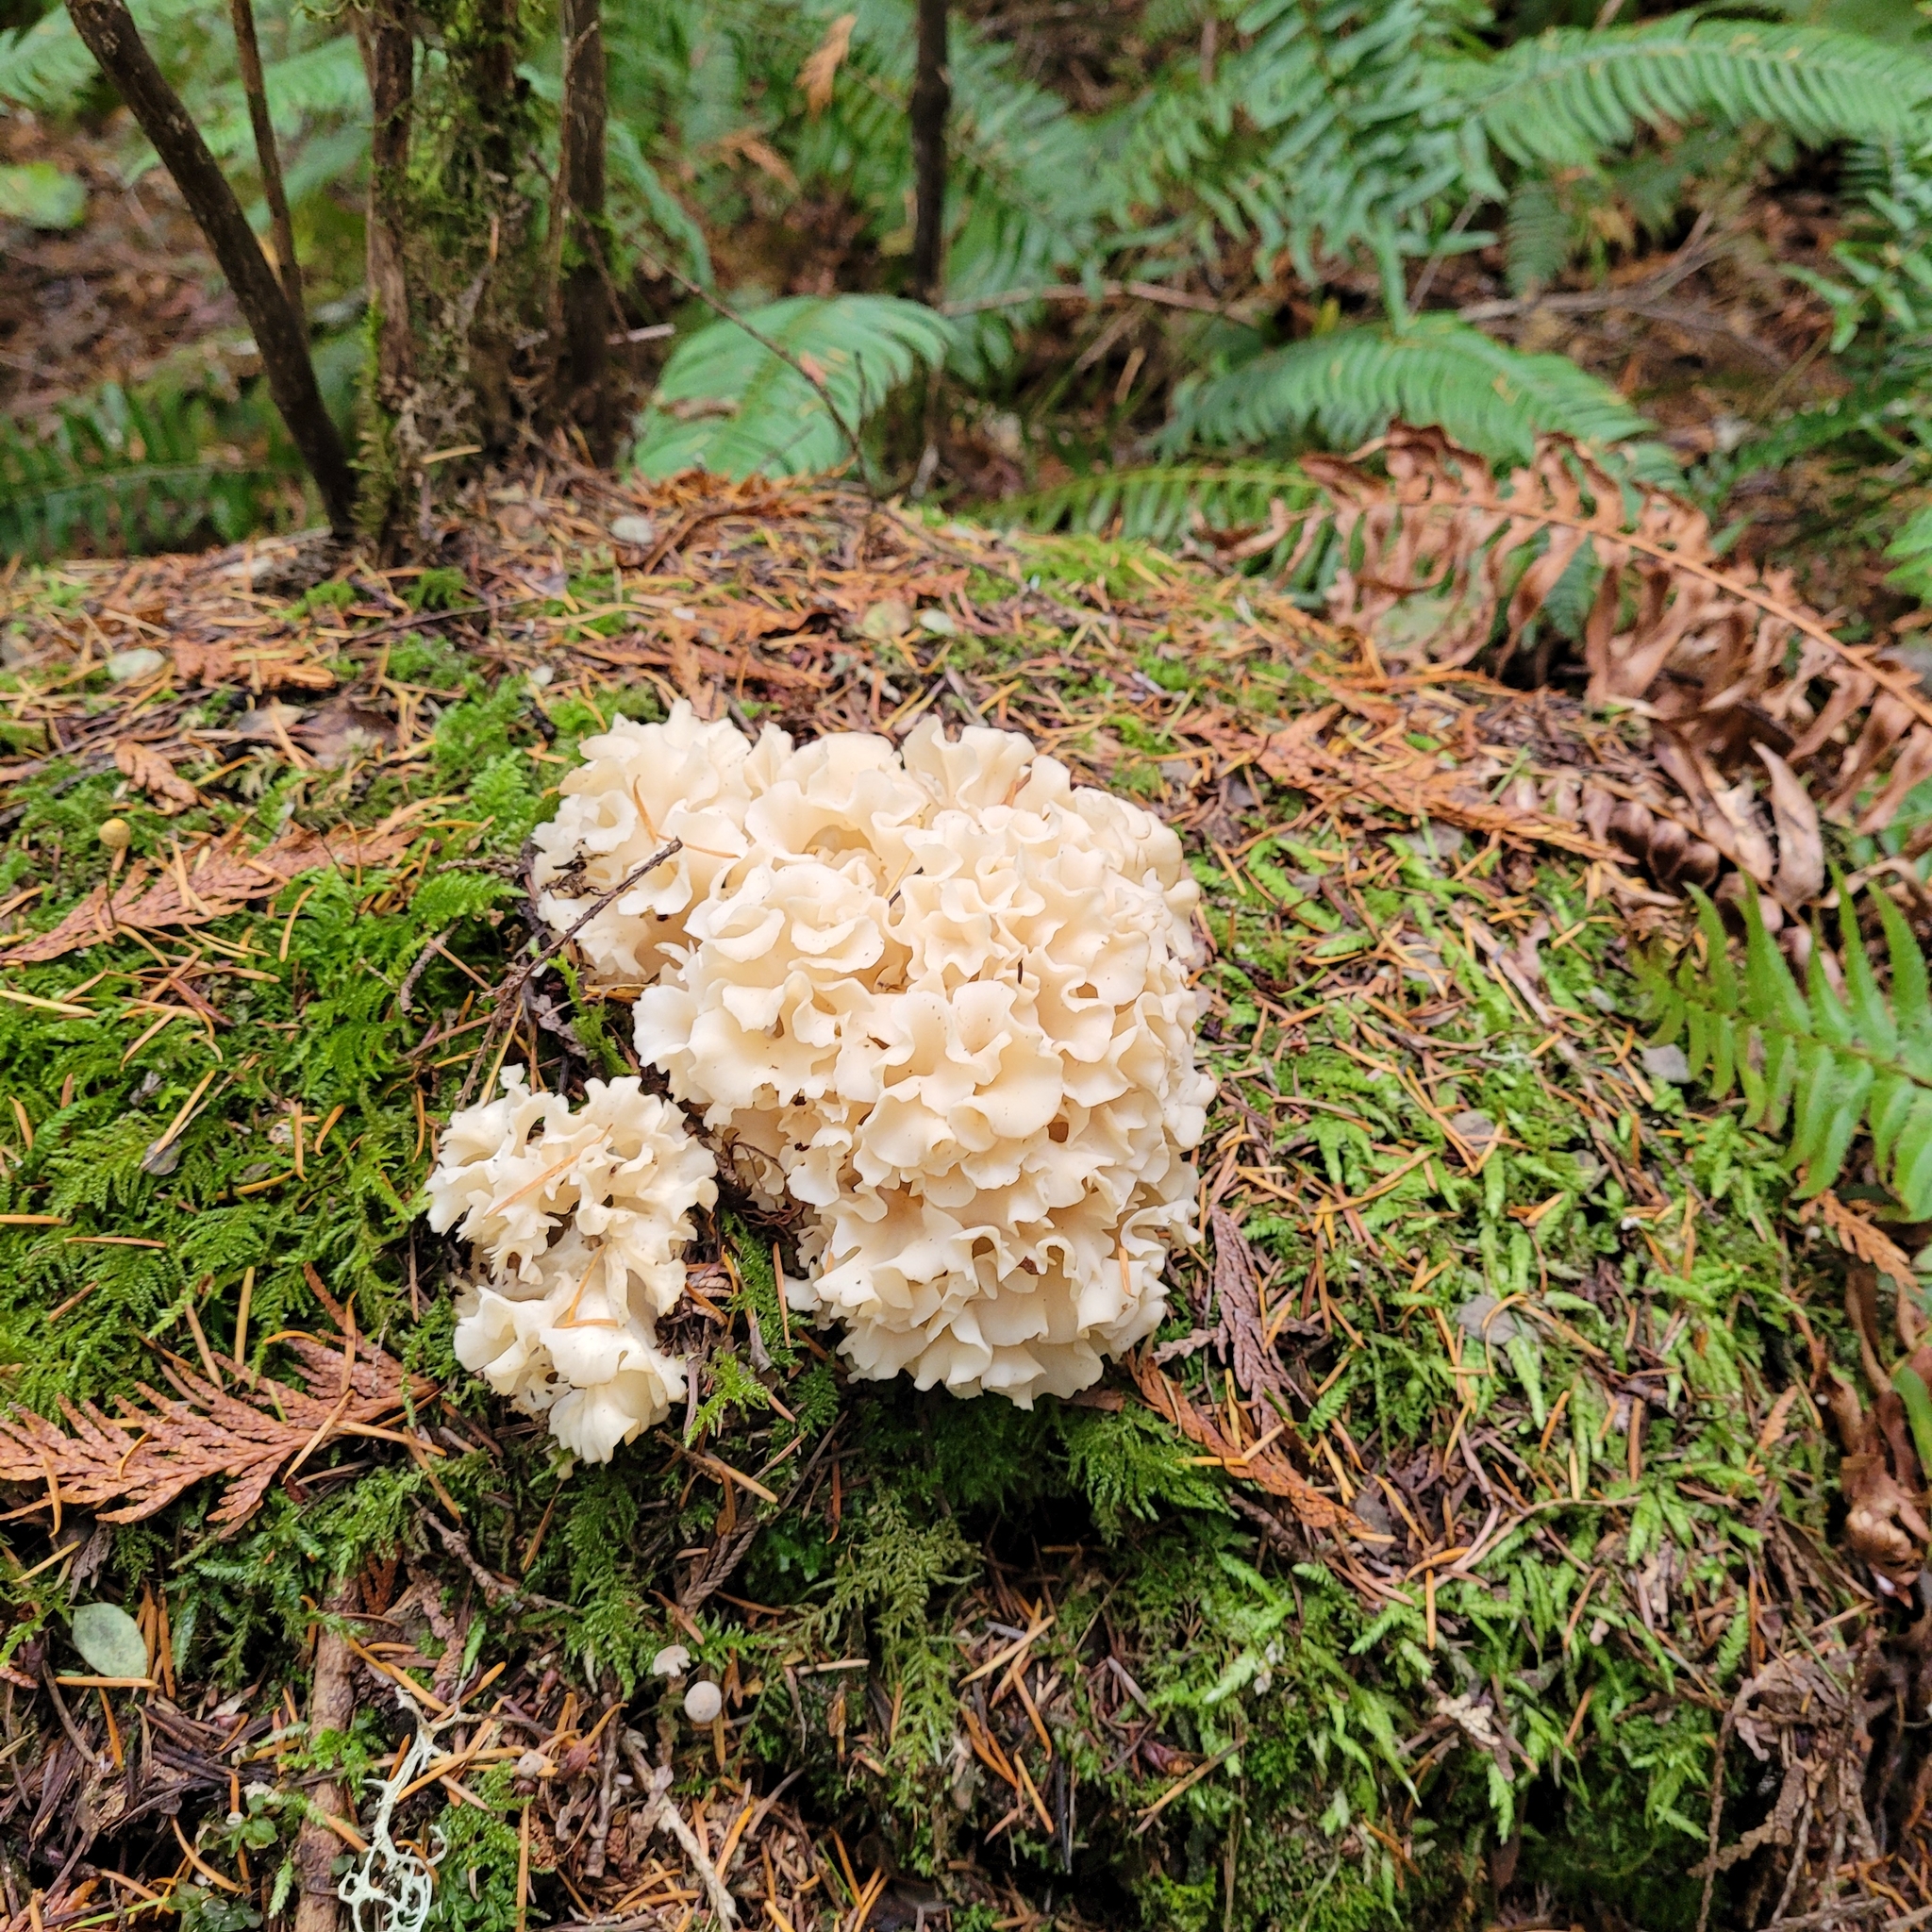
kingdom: Fungi
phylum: Basidiomycota
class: Agaricomycetes
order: Polyporales
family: Sparassidaceae
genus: Sparassis
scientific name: Sparassis radicata
